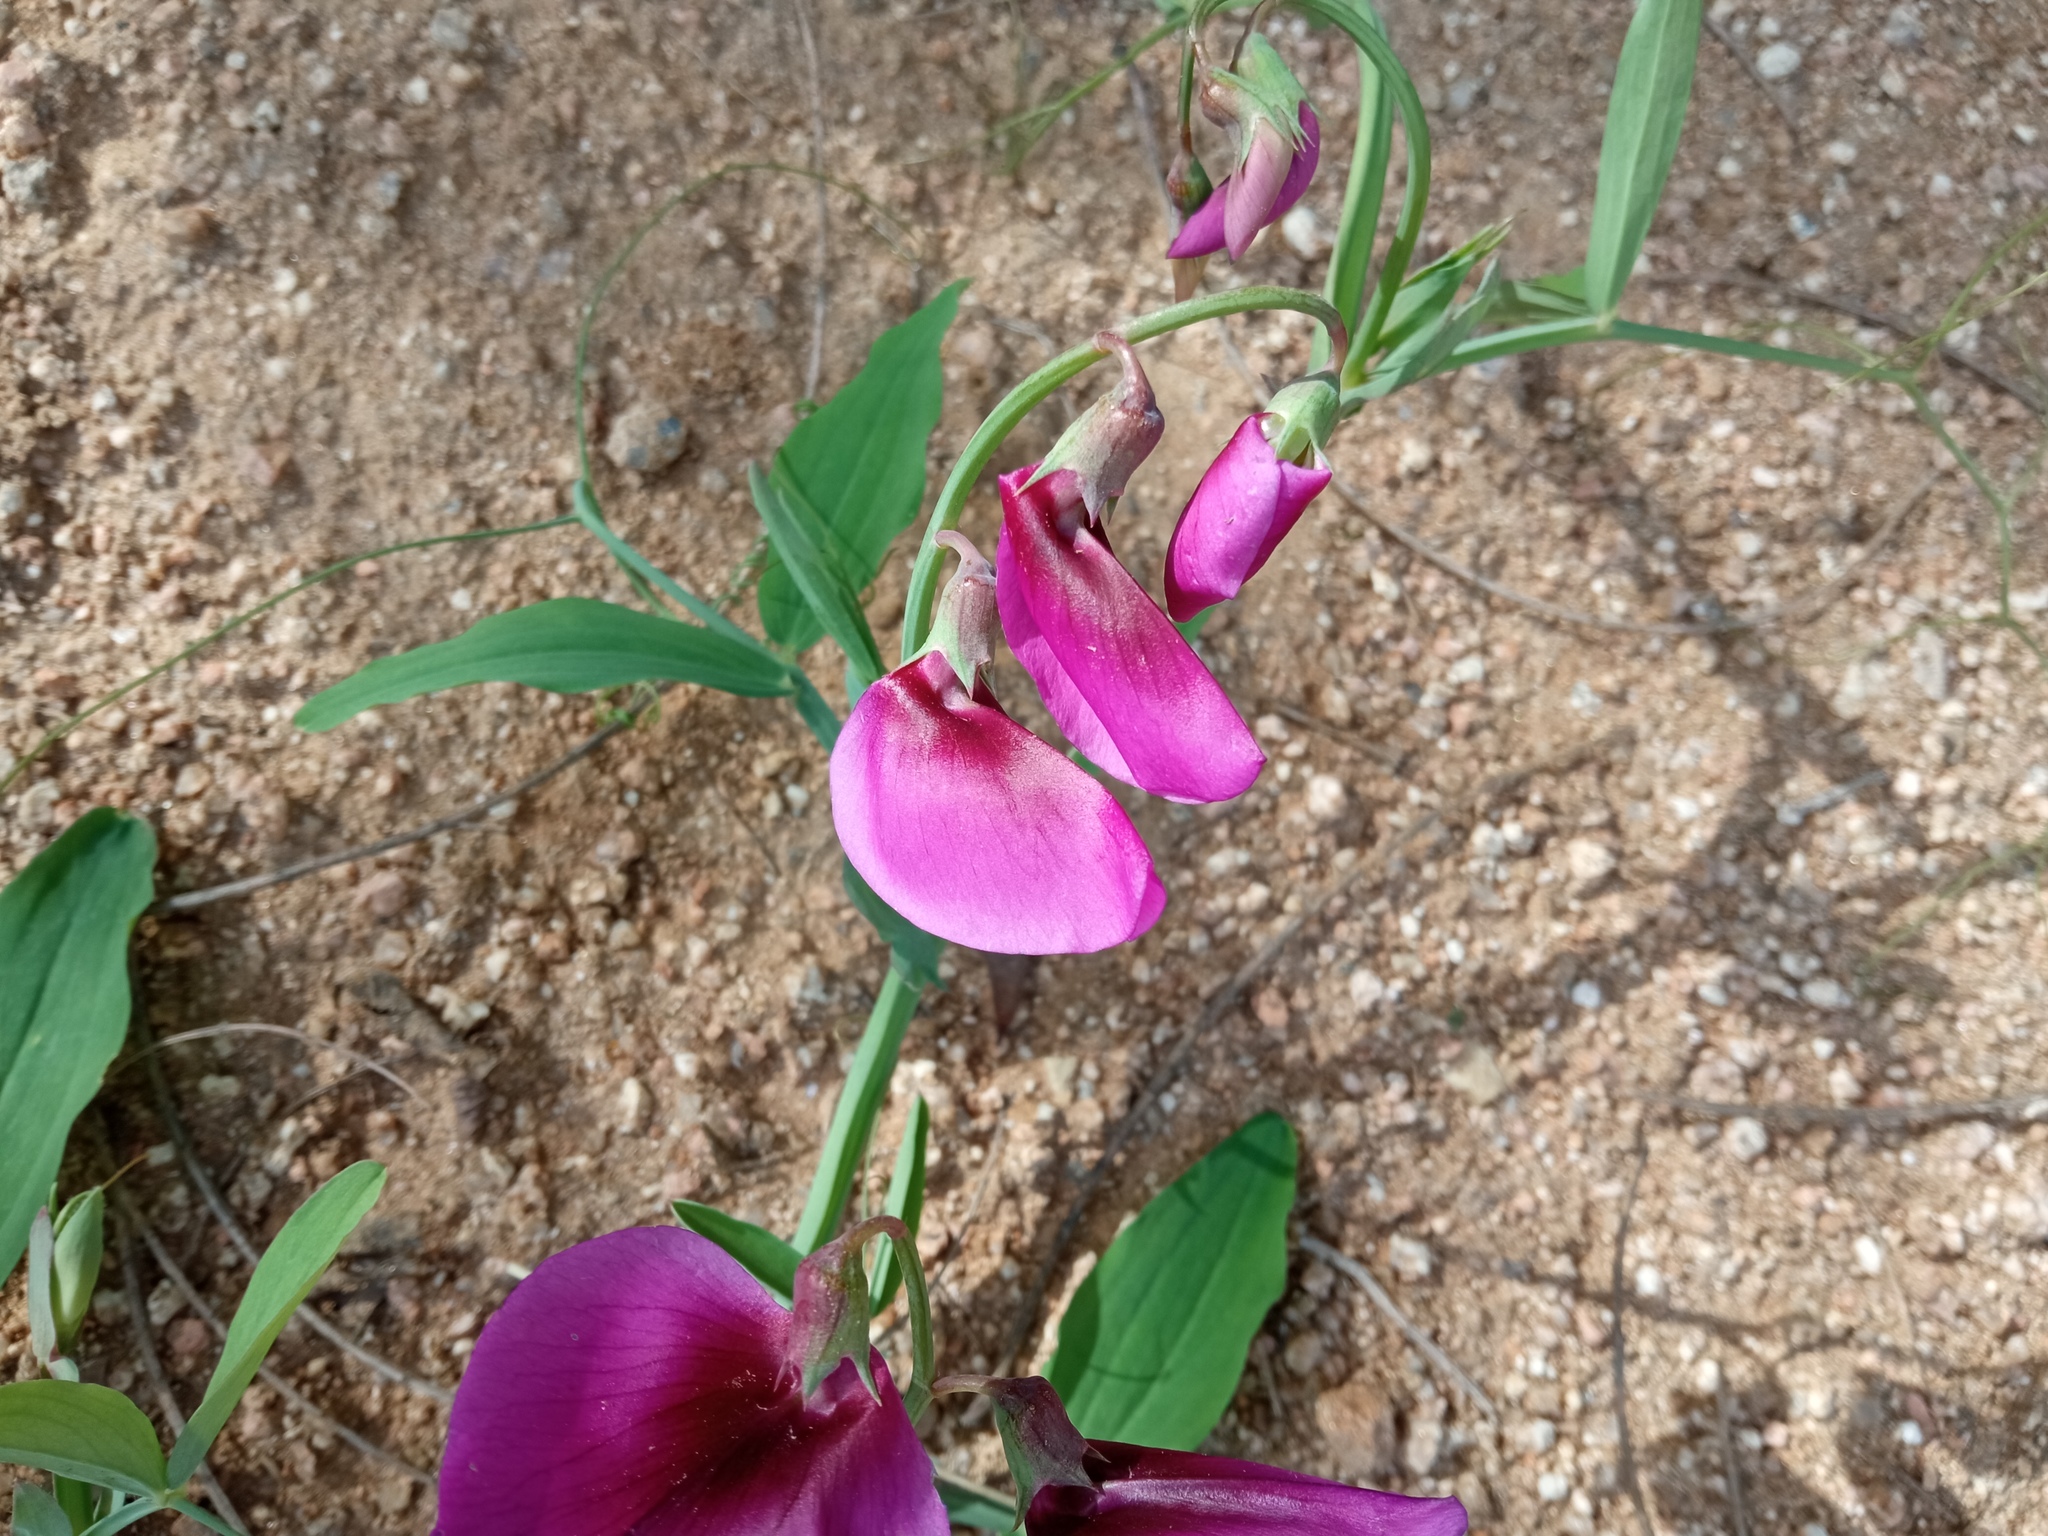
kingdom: Plantae
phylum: Tracheophyta
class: Magnoliopsida
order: Fabales
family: Fabaceae
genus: Lathyrus
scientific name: Lathyrus tingitanus
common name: Tangier pea
